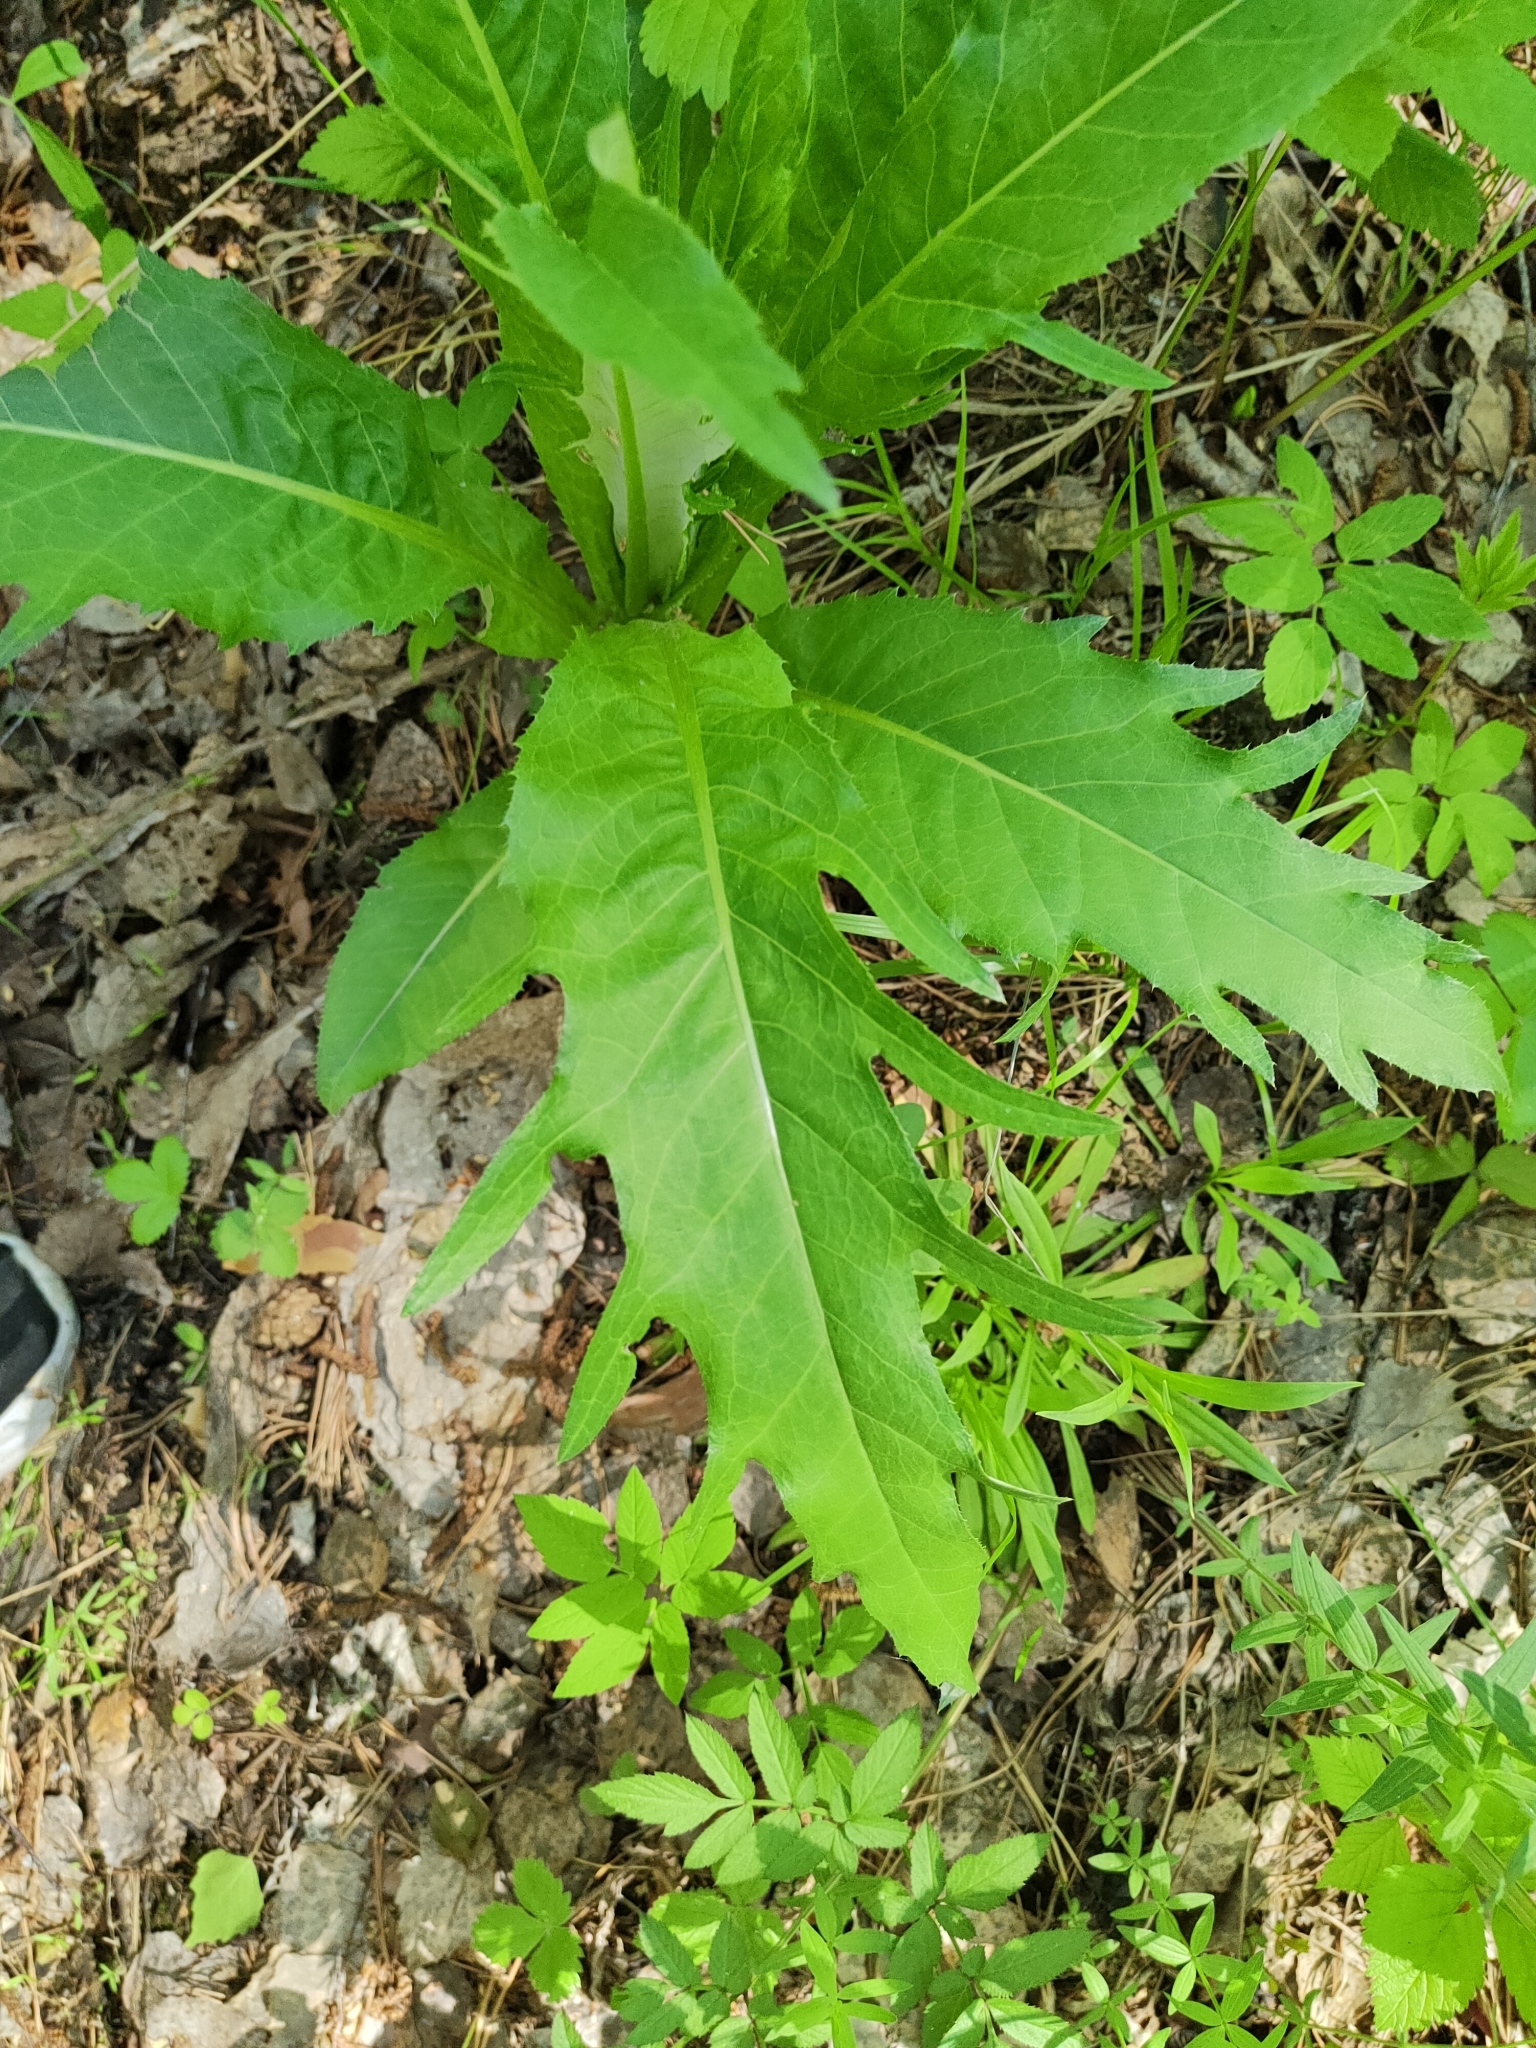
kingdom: Plantae
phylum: Tracheophyta
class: Magnoliopsida
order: Asterales
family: Asteraceae
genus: Cirsium
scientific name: Cirsium heterophyllum
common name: Melancholy thistle
